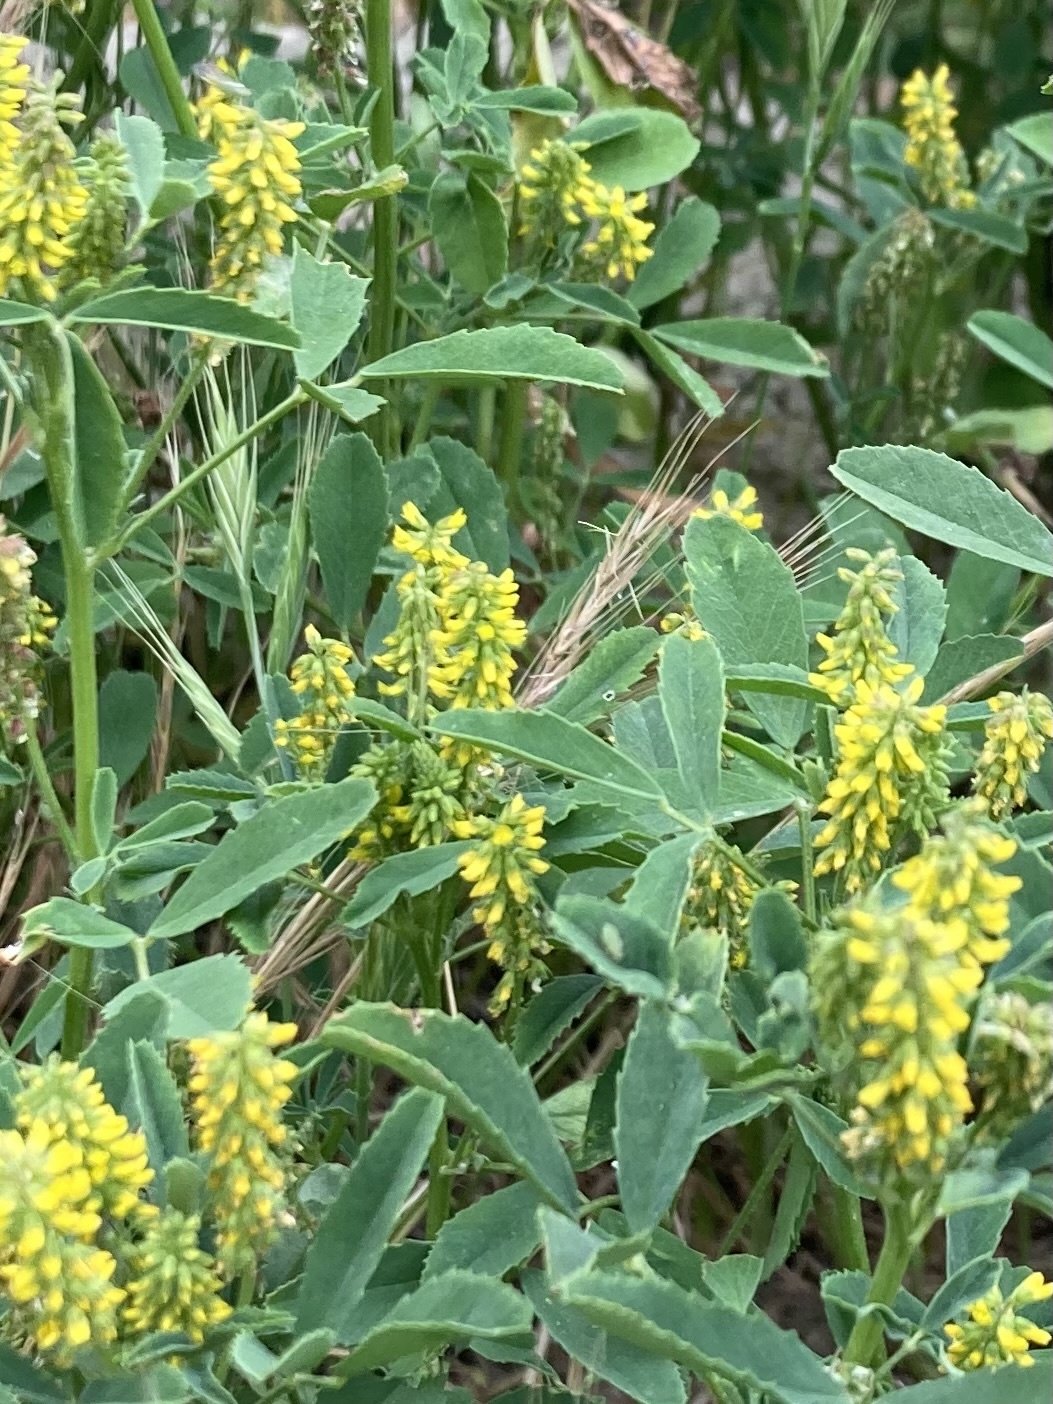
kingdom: Plantae
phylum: Tracheophyta
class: Magnoliopsida
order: Fabales
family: Fabaceae
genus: Melilotus
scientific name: Melilotus indicus
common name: Small melilot
